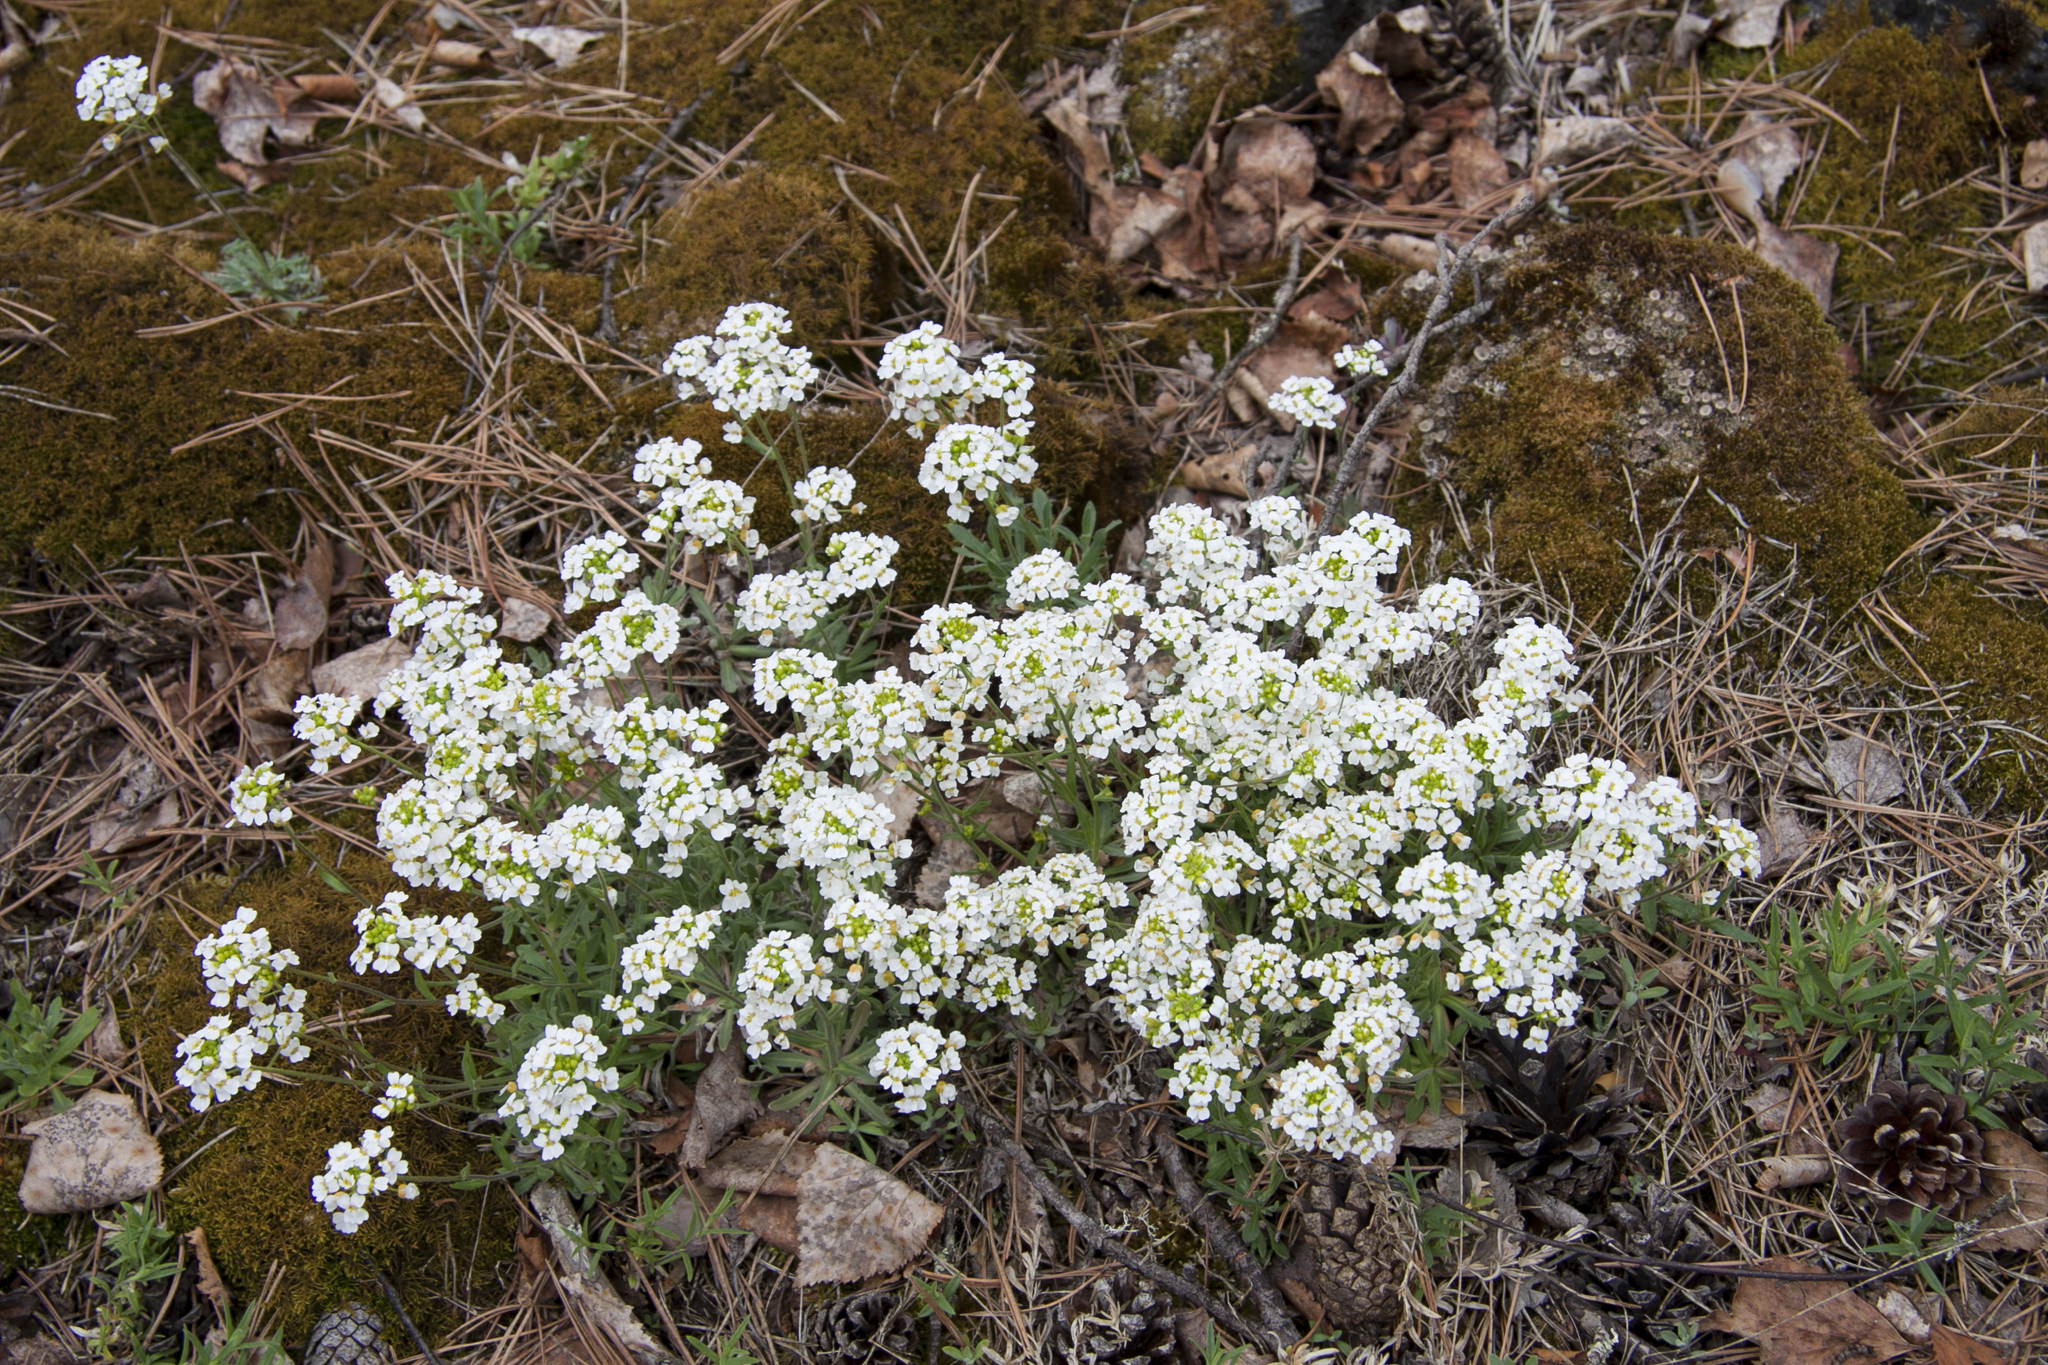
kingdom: Plantae
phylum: Tracheophyta
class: Magnoliopsida
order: Brassicales
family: Brassicaceae
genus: Draba
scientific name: Draba hyperborea
